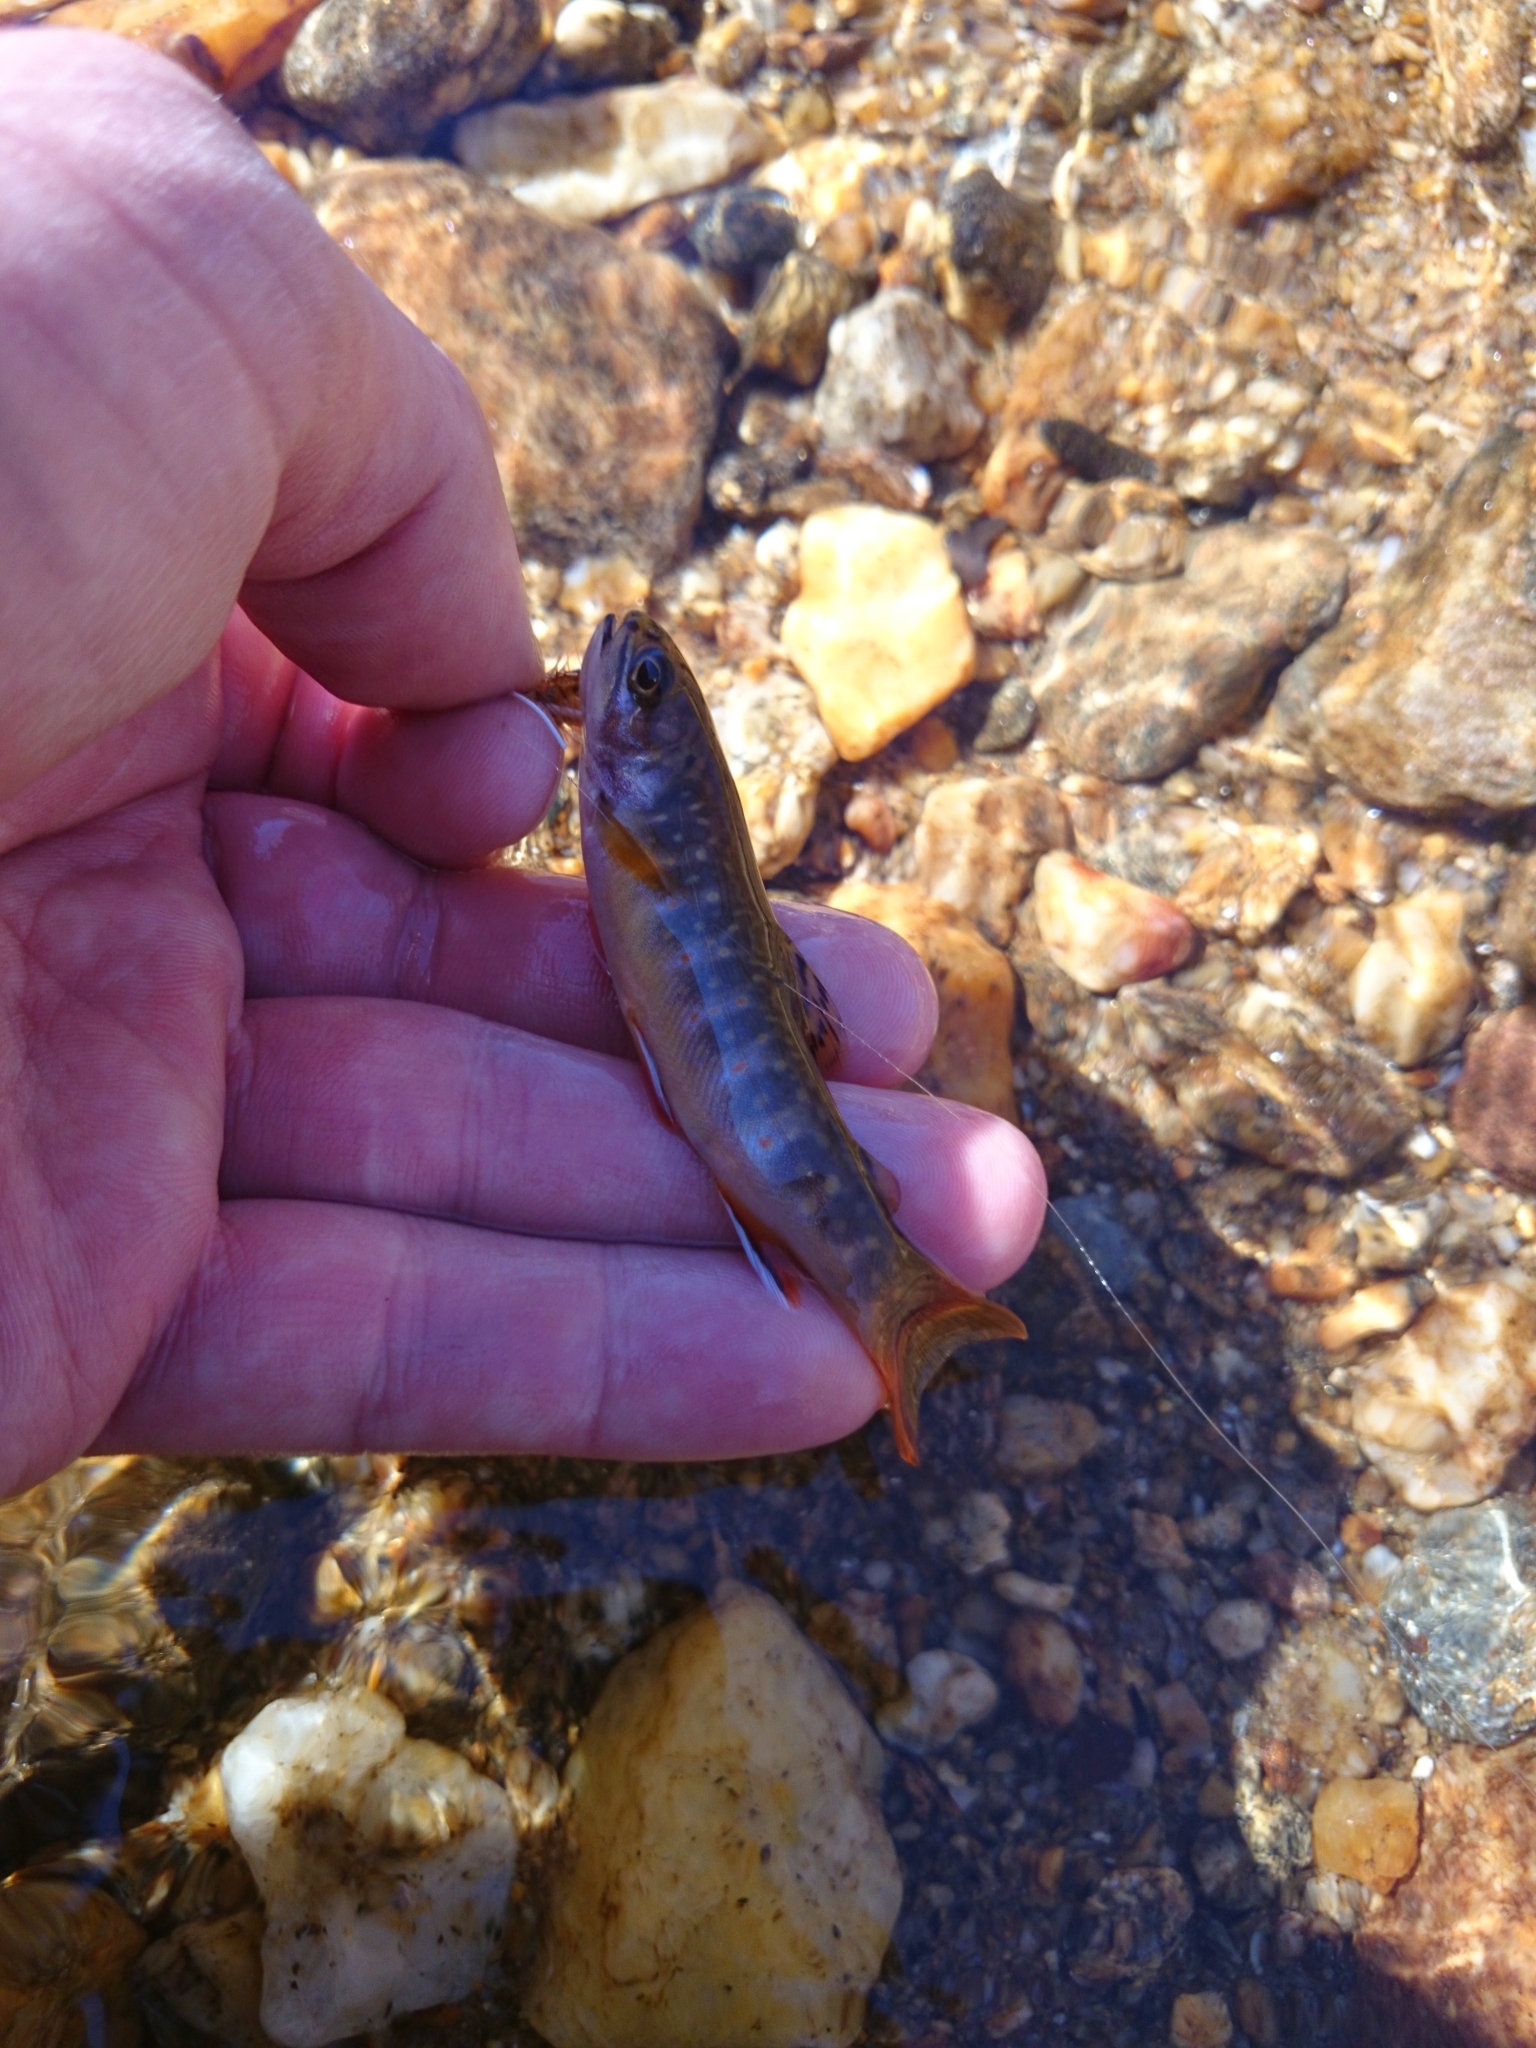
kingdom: Animalia
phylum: Chordata
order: Salmoniformes
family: Salmonidae
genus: Salvelinus
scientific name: Salvelinus fontinalis
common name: Brook trout
